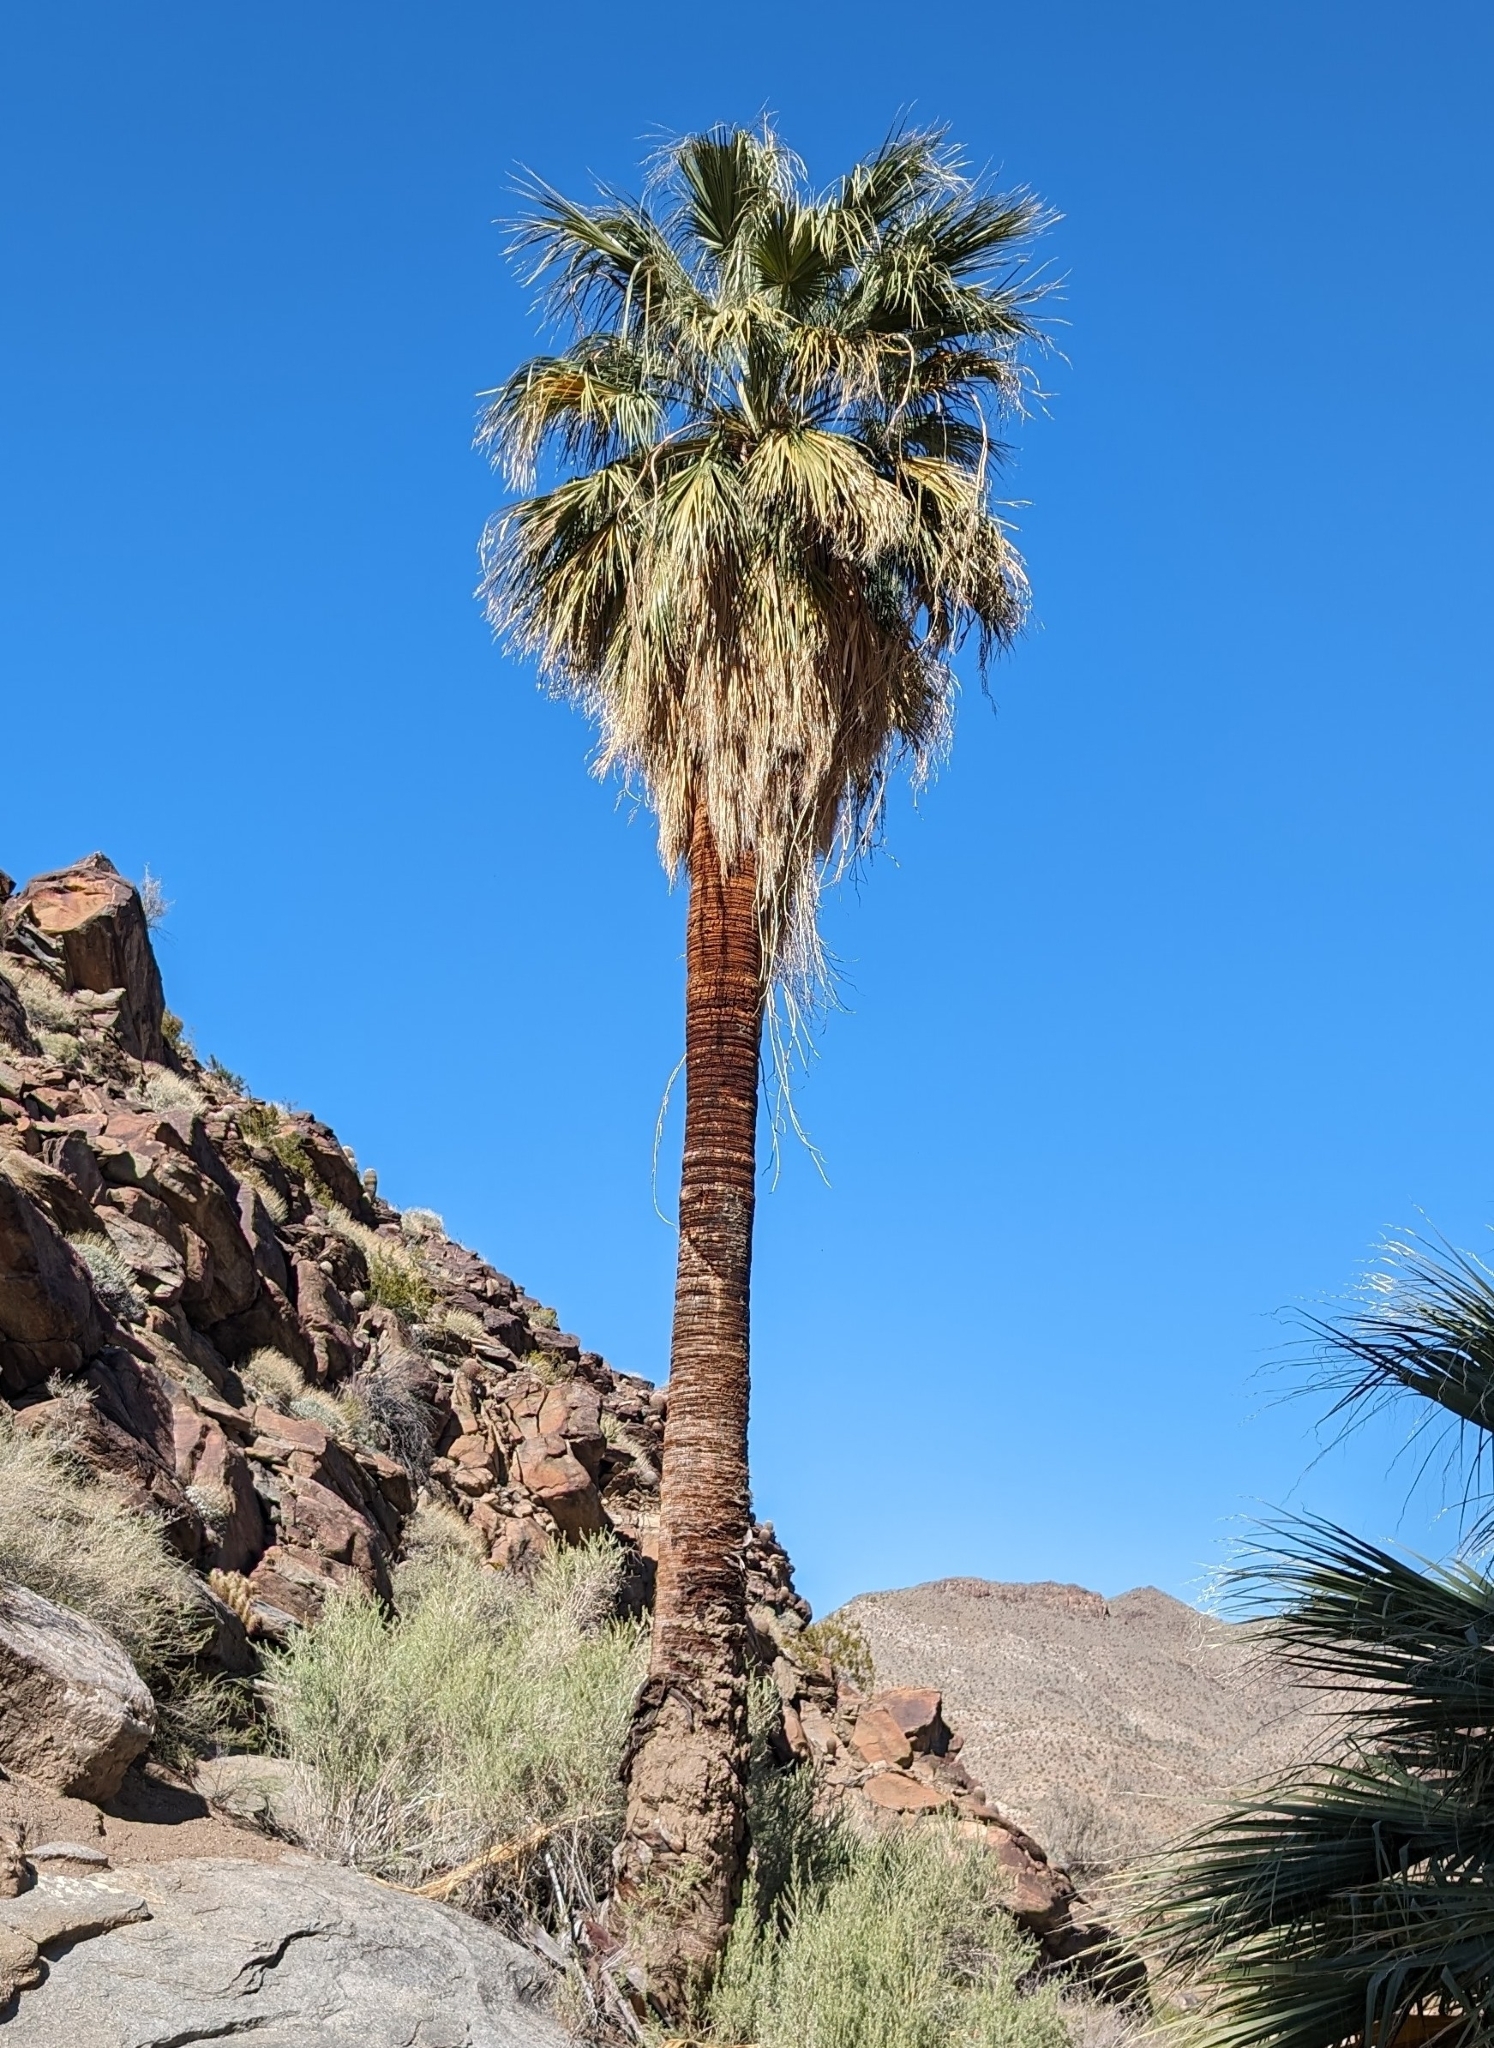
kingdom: Plantae
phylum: Tracheophyta
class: Liliopsida
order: Arecales
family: Arecaceae
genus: Washingtonia
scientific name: Washingtonia filifera
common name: California fan palm
